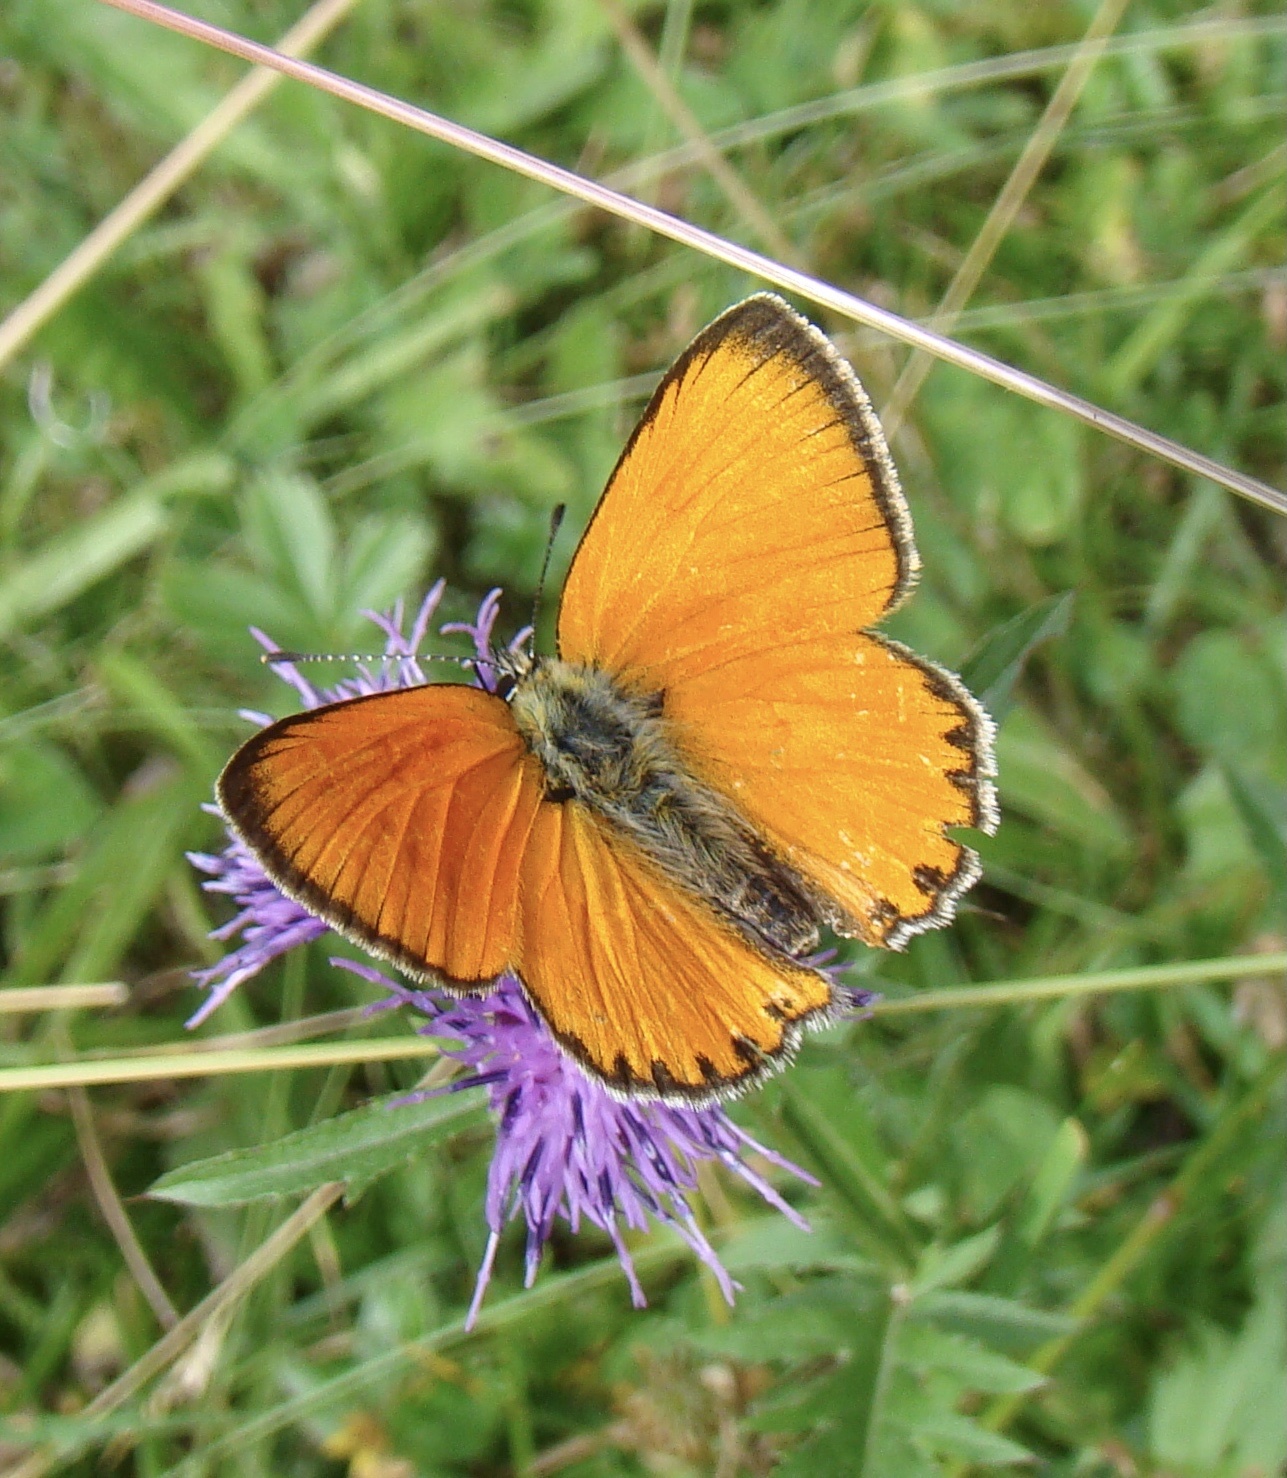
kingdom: Animalia
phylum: Arthropoda
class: Insecta
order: Lepidoptera
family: Lycaenidae
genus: Lycaena
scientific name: Lycaena virgaureae
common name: Scarce copper
